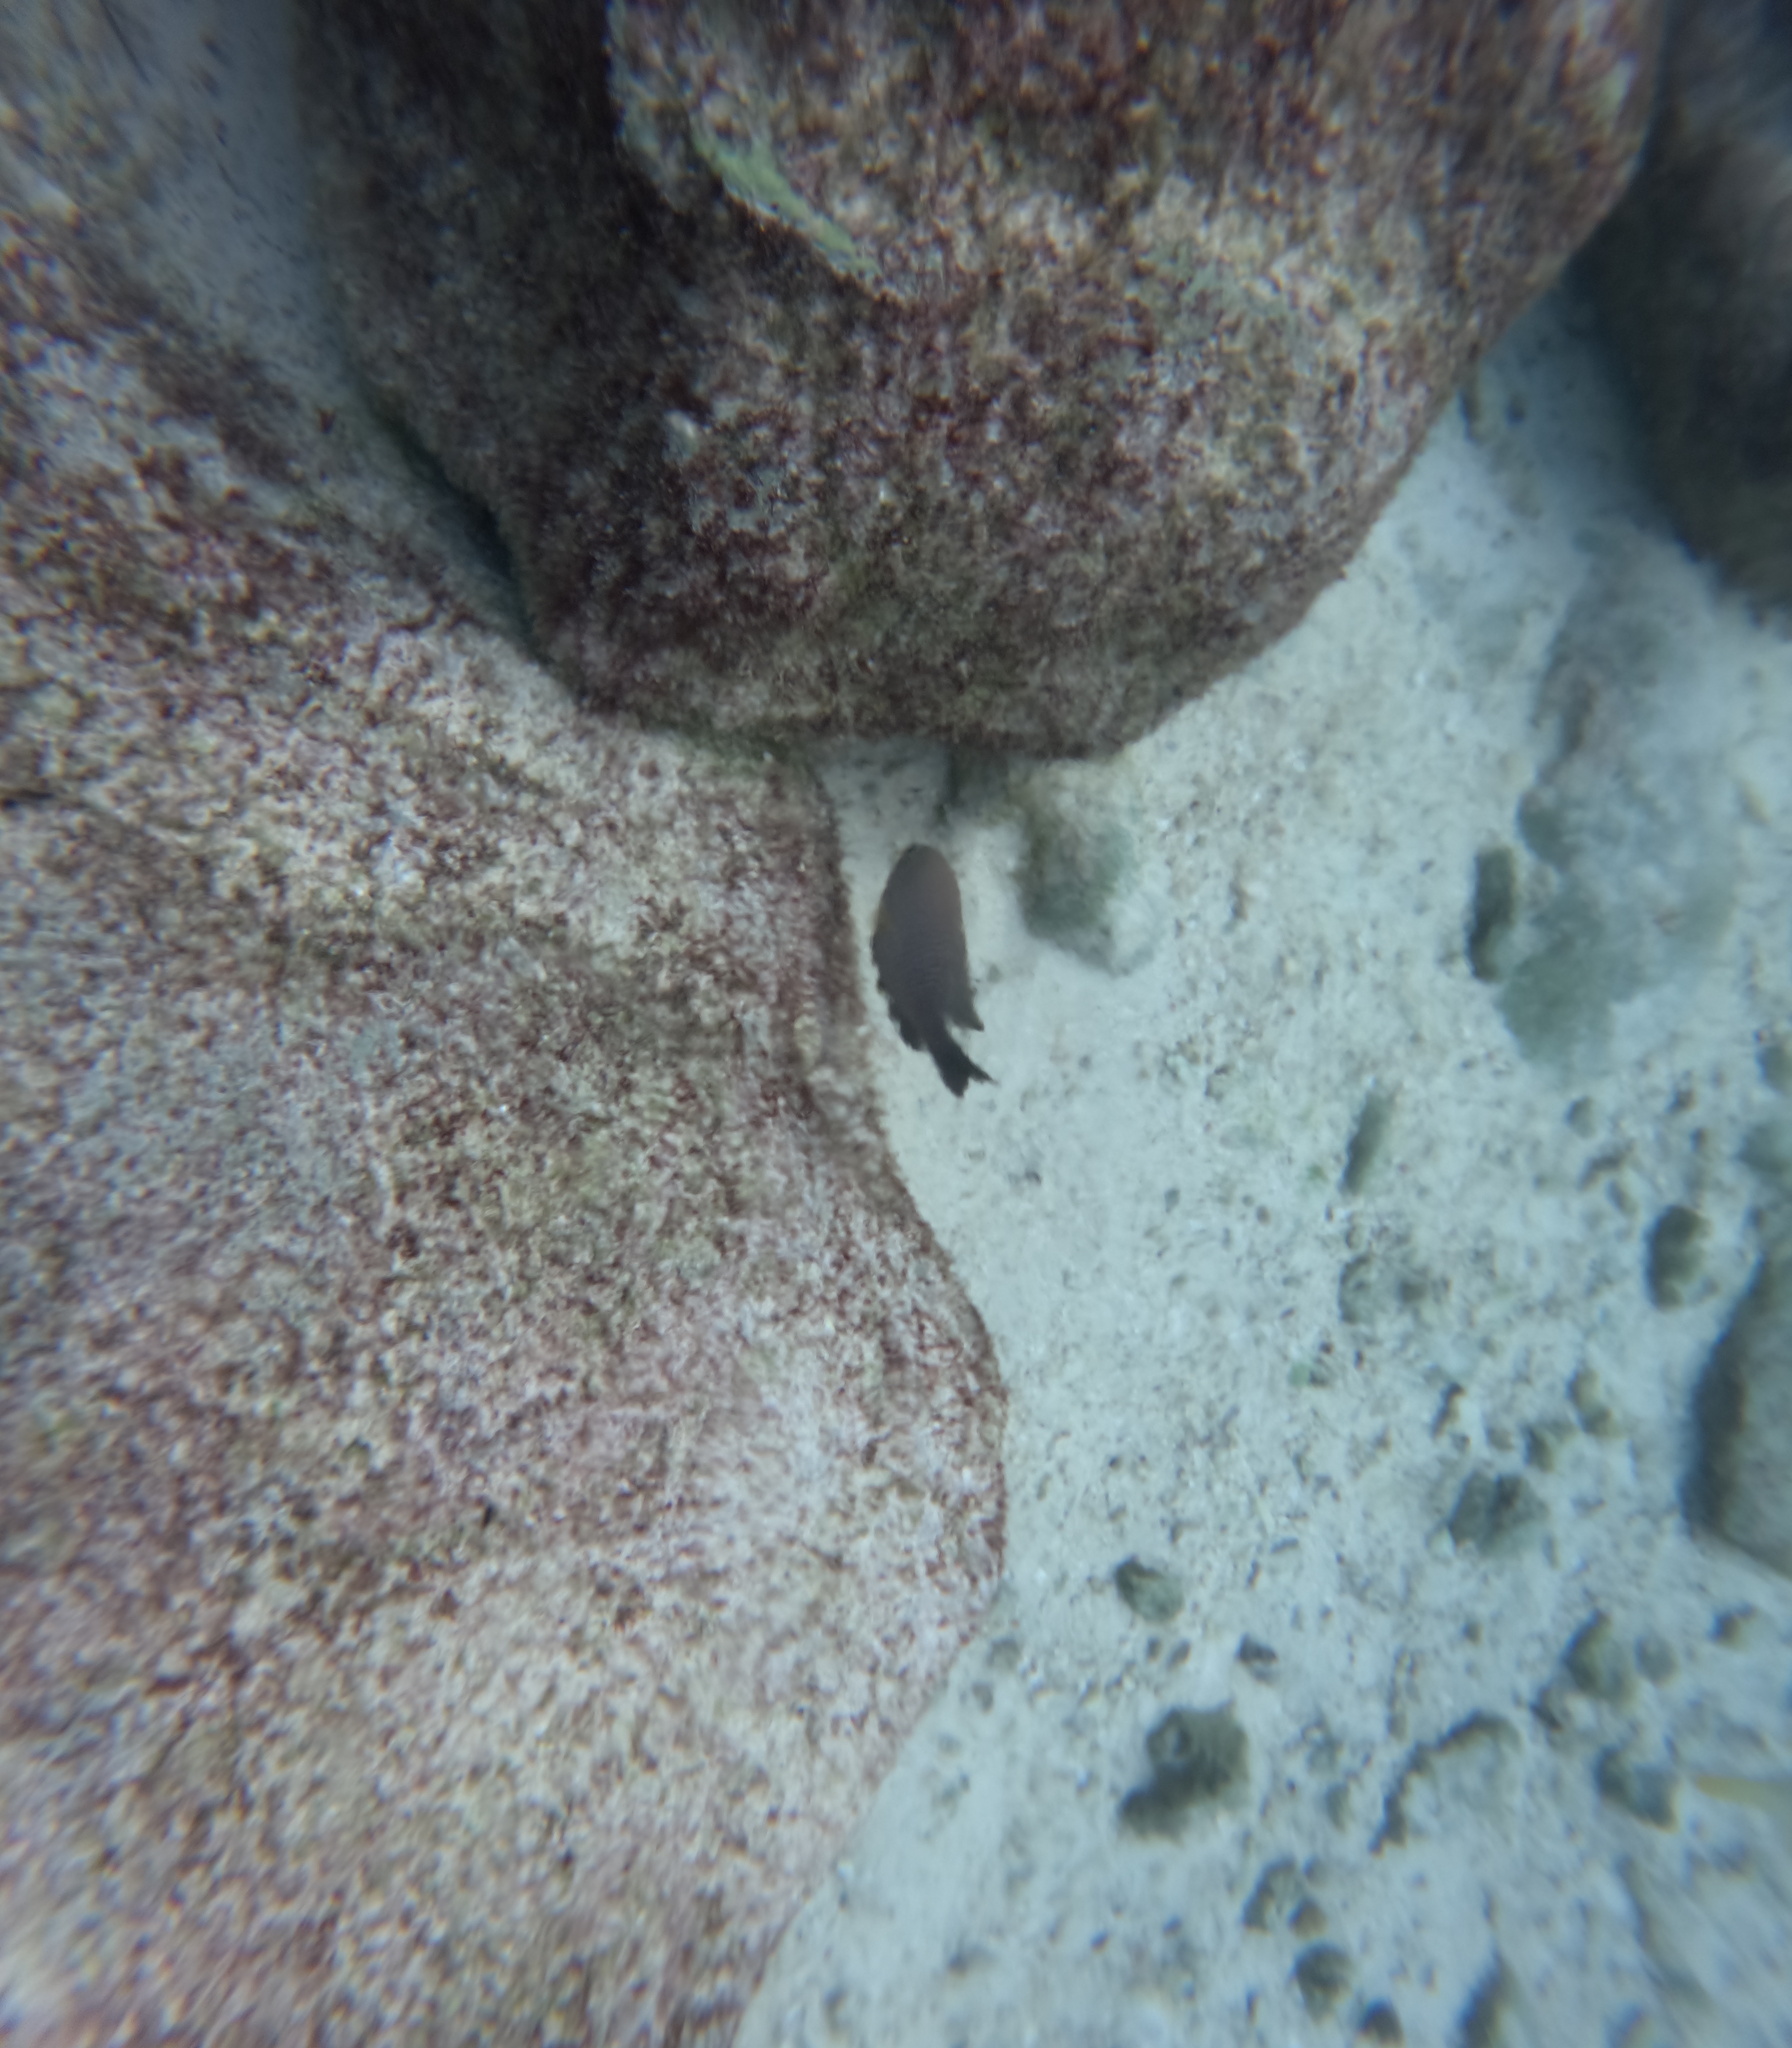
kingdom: Animalia
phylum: Chordata
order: Perciformes
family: Pomacentridae
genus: Stegastes
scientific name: Stegastes leucostictus
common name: Beaugregory
